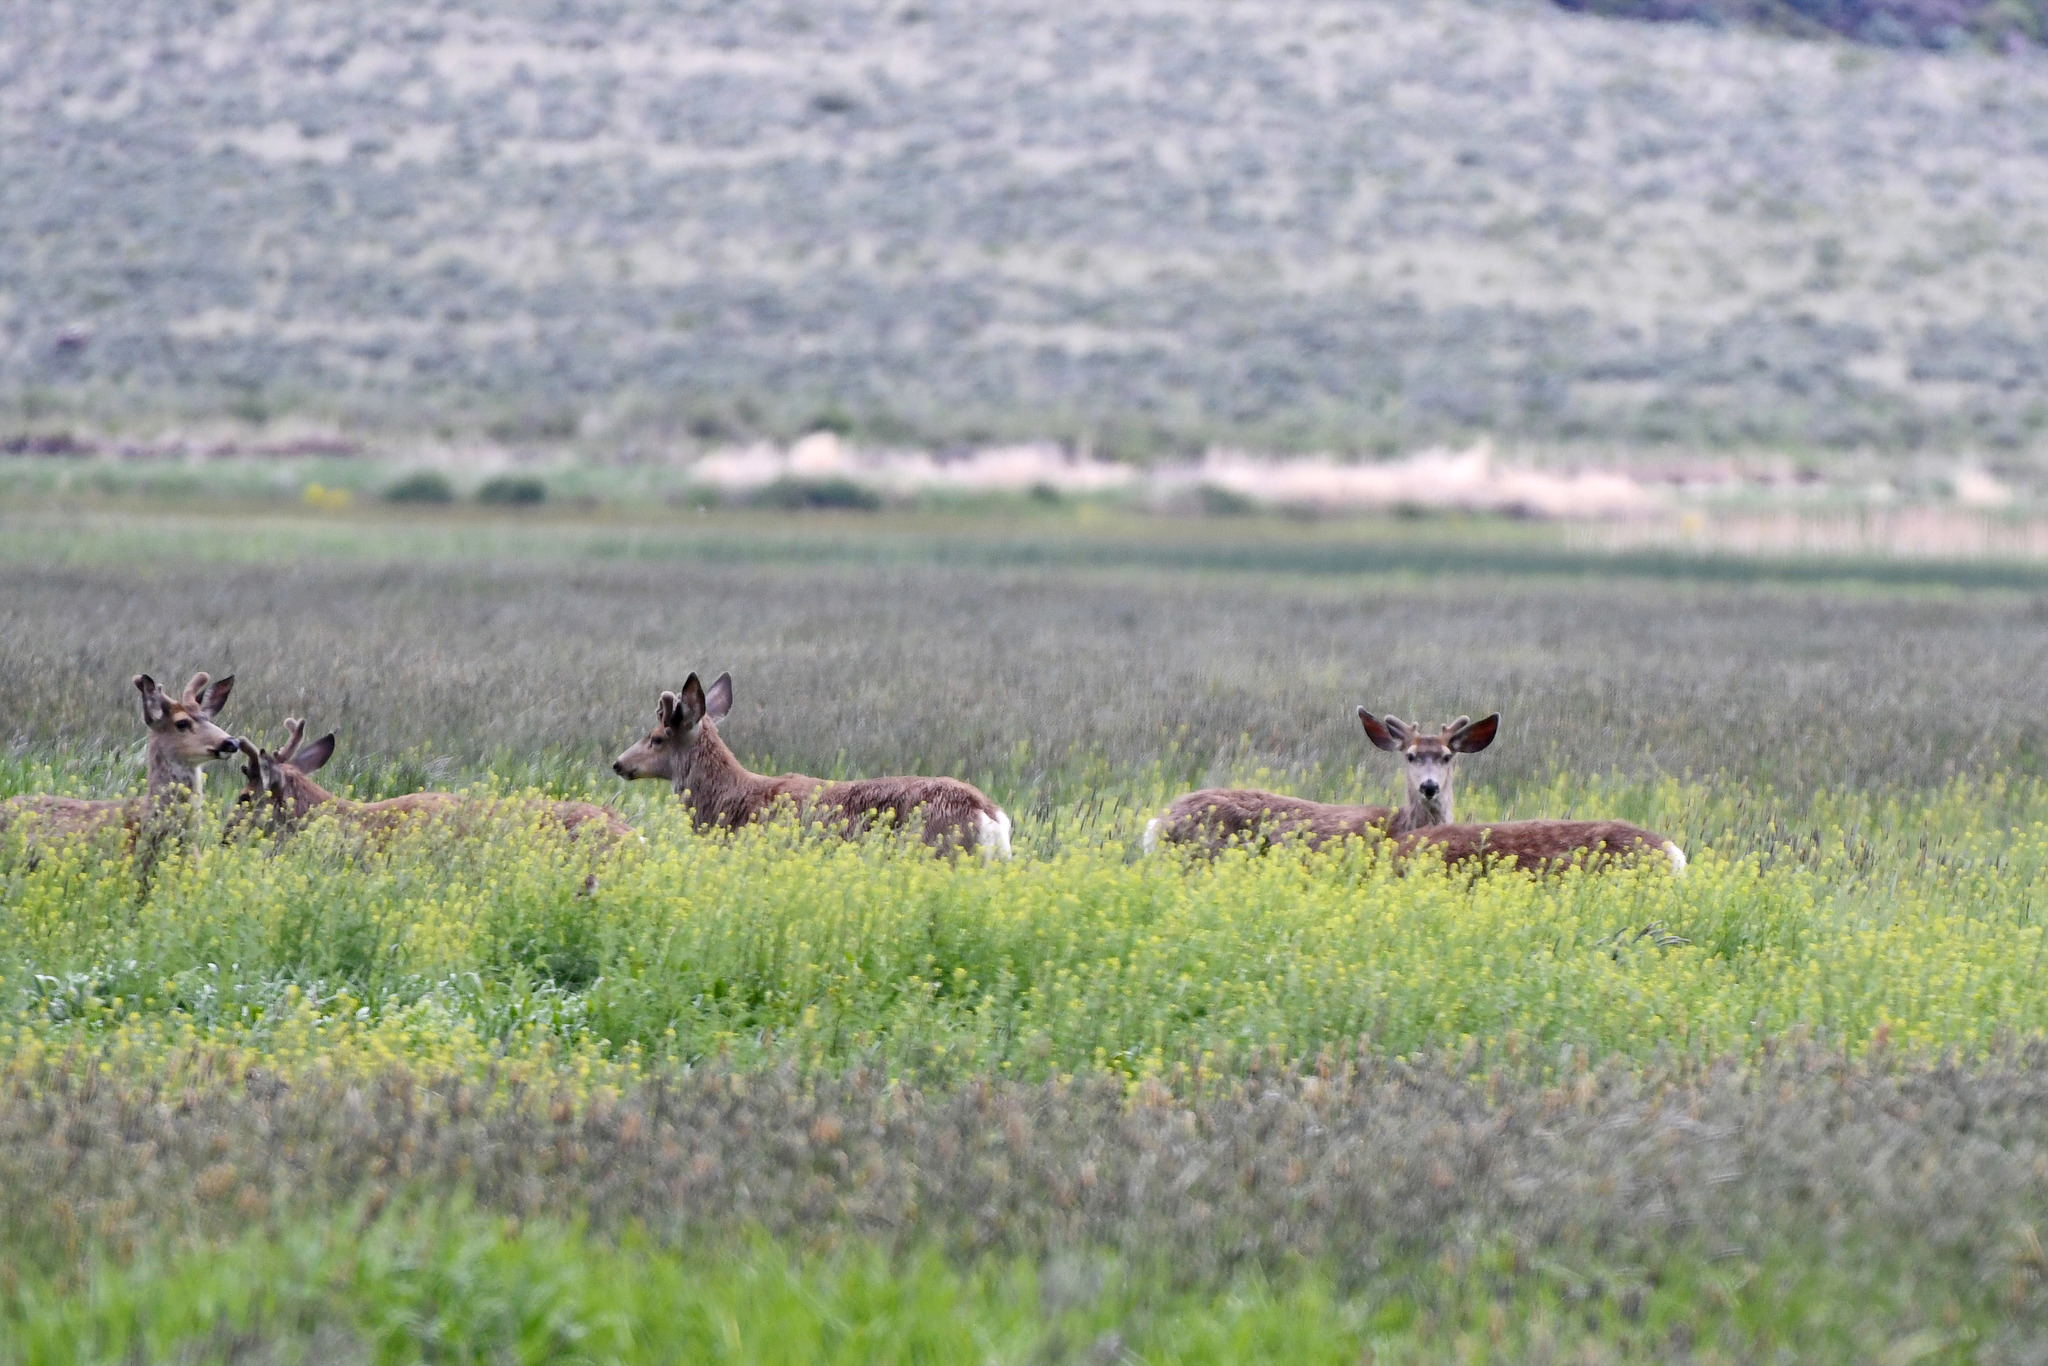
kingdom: Animalia
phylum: Chordata
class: Mammalia
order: Artiodactyla
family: Cervidae
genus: Odocoileus
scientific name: Odocoileus hemionus
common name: Mule deer
